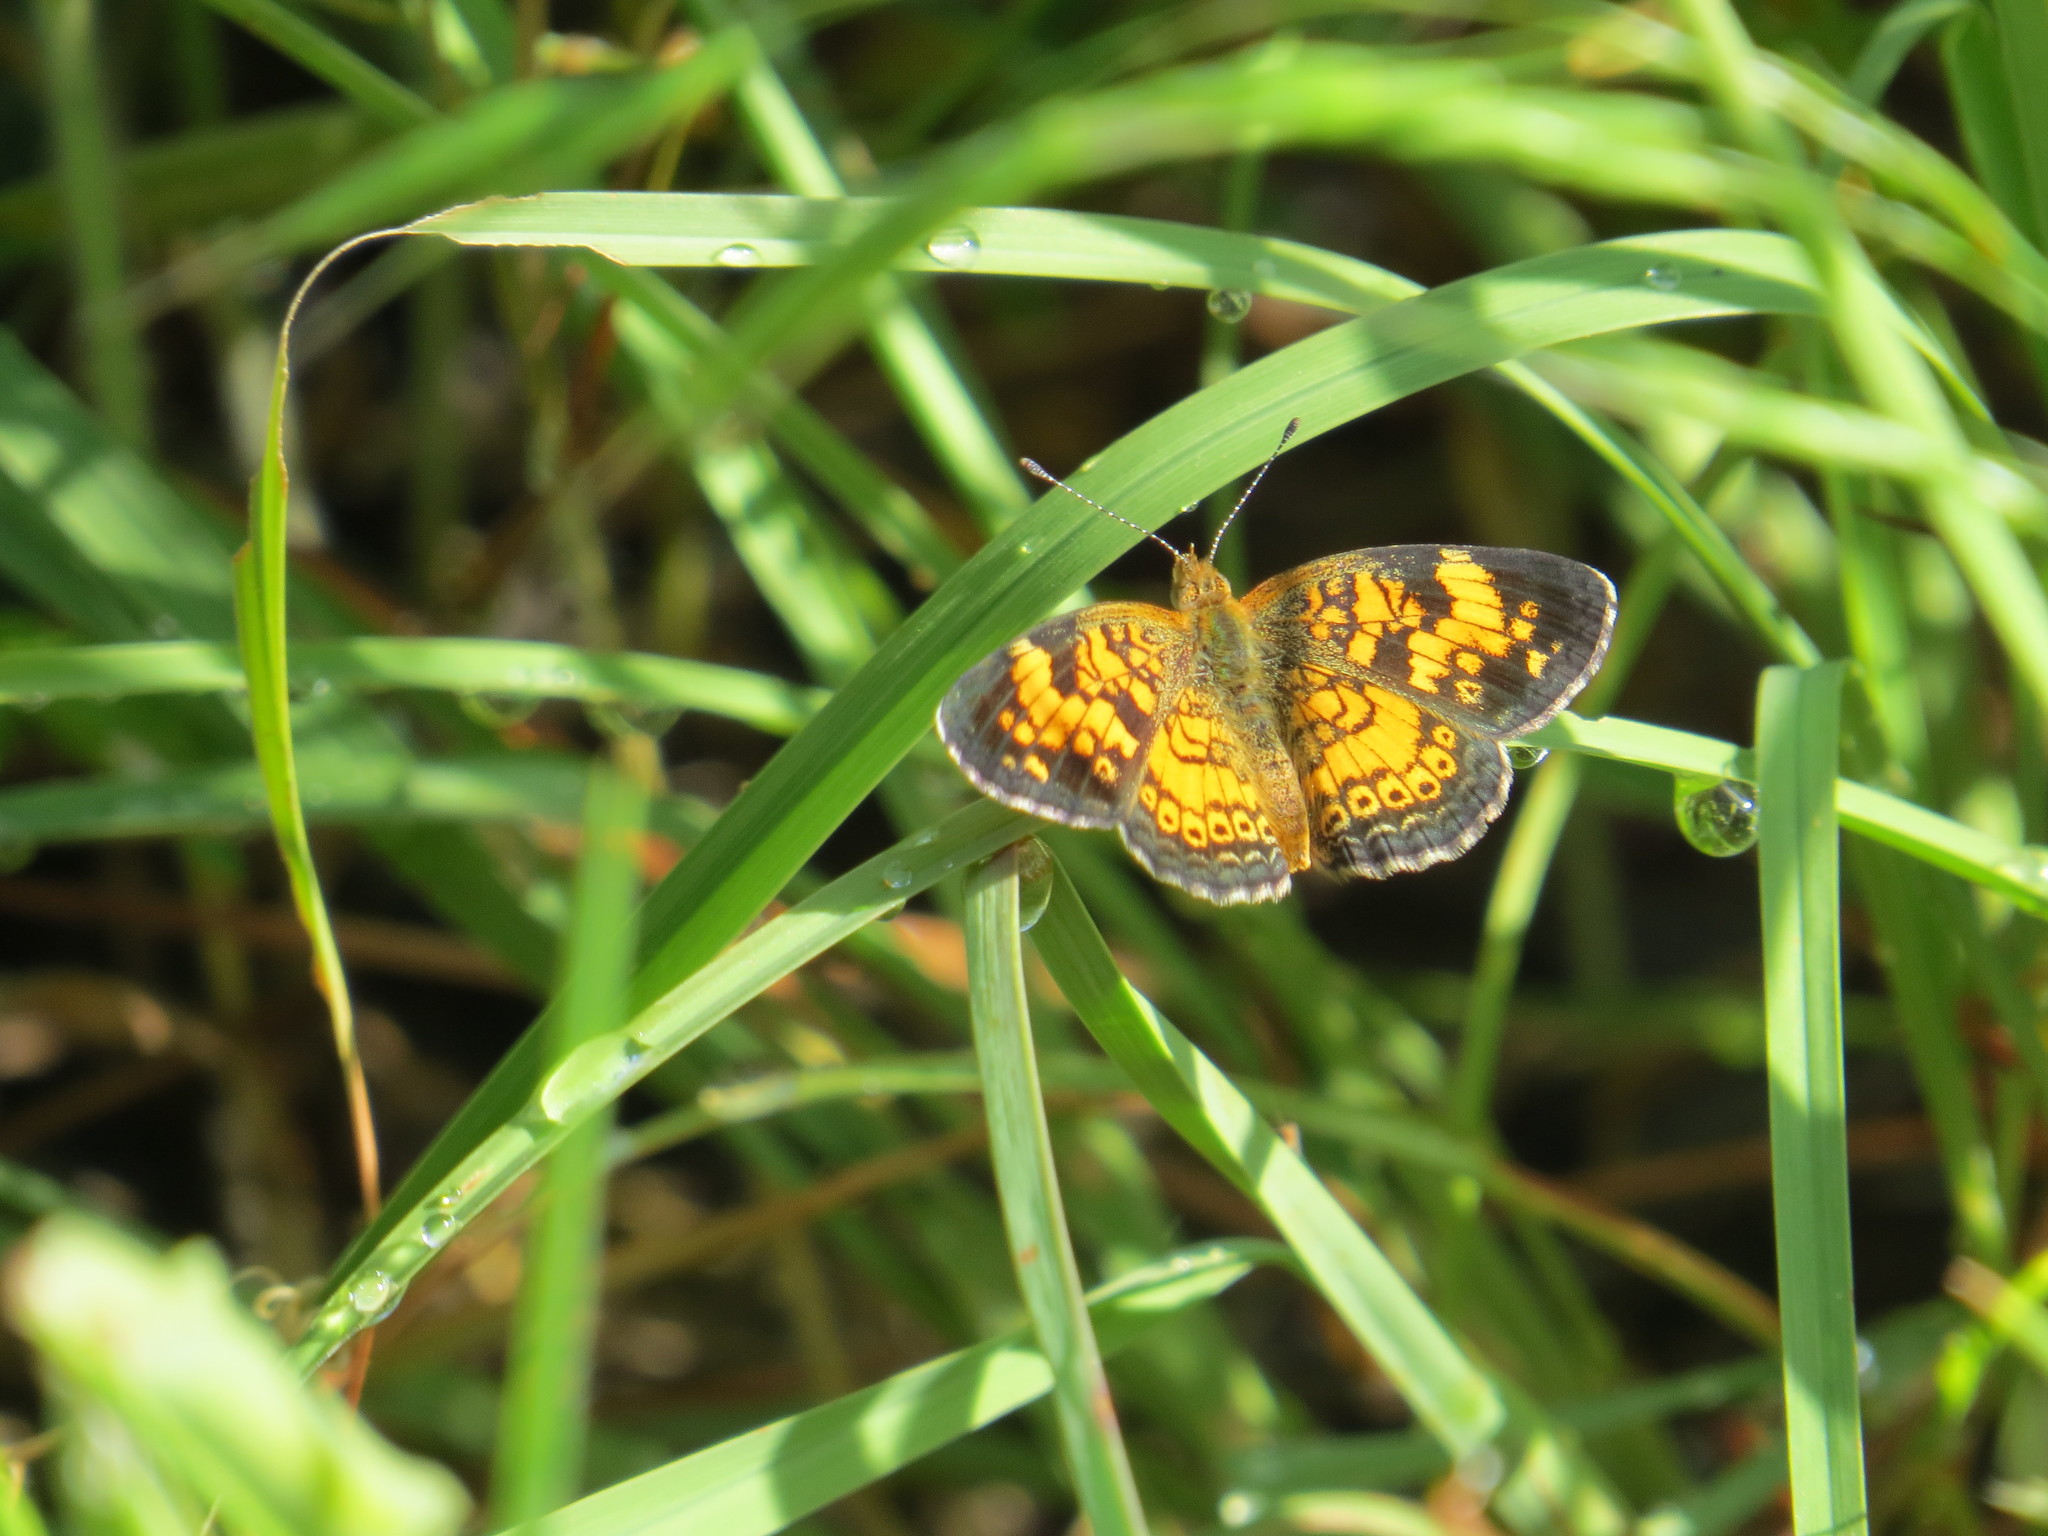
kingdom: Animalia
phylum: Arthropoda
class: Insecta
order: Lepidoptera
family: Nymphalidae
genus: Phyciodes
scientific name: Phyciodes tharos
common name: Pearl crescent
